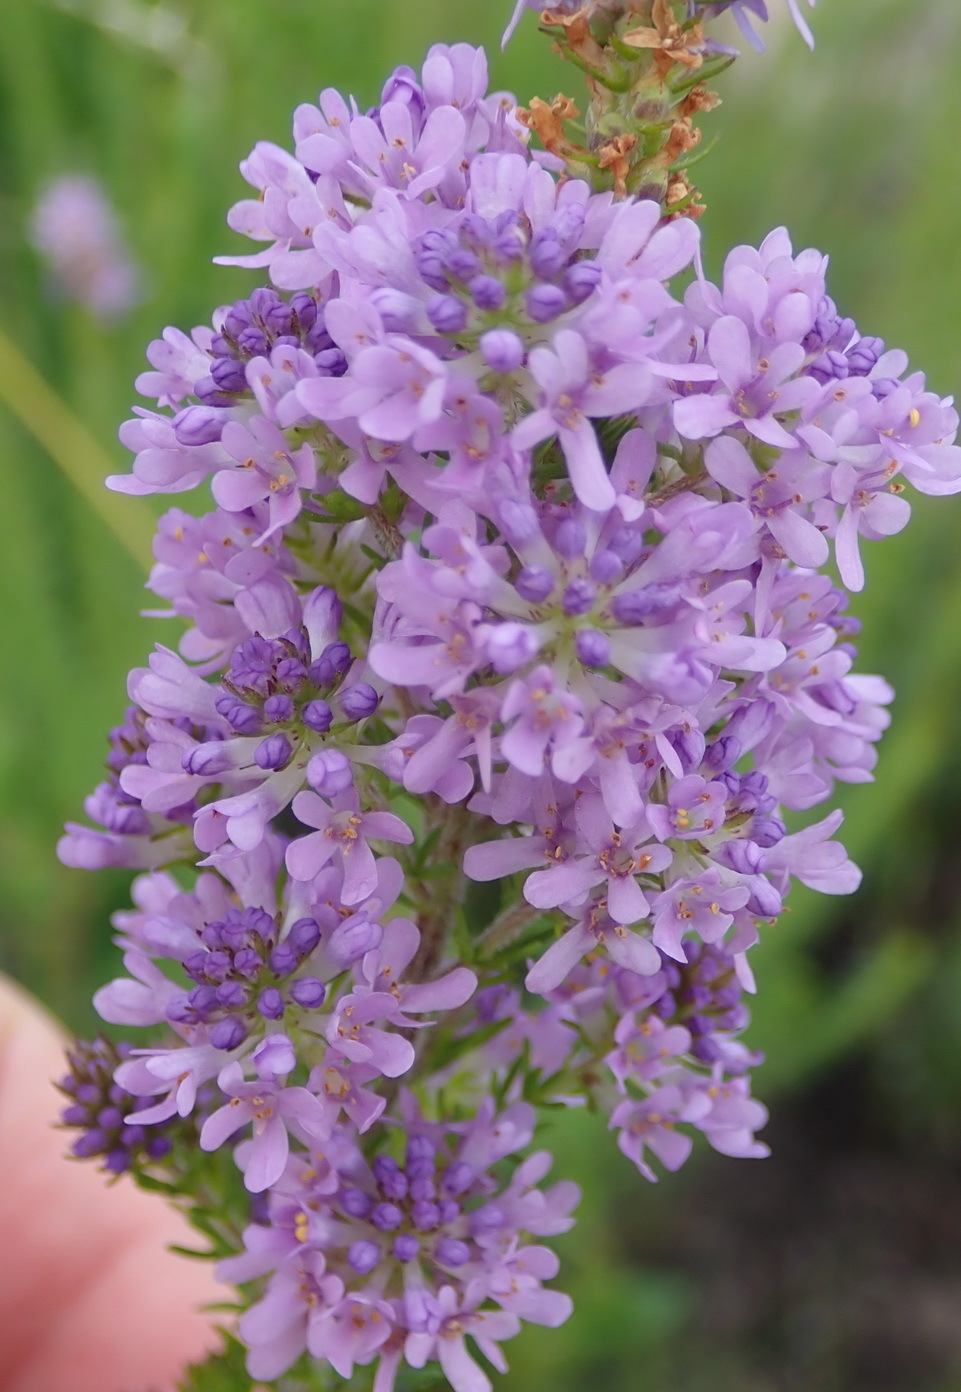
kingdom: Plantae
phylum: Tracheophyta
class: Magnoliopsida
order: Lamiales
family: Scrophulariaceae
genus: Selago
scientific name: Selago villicaulis
